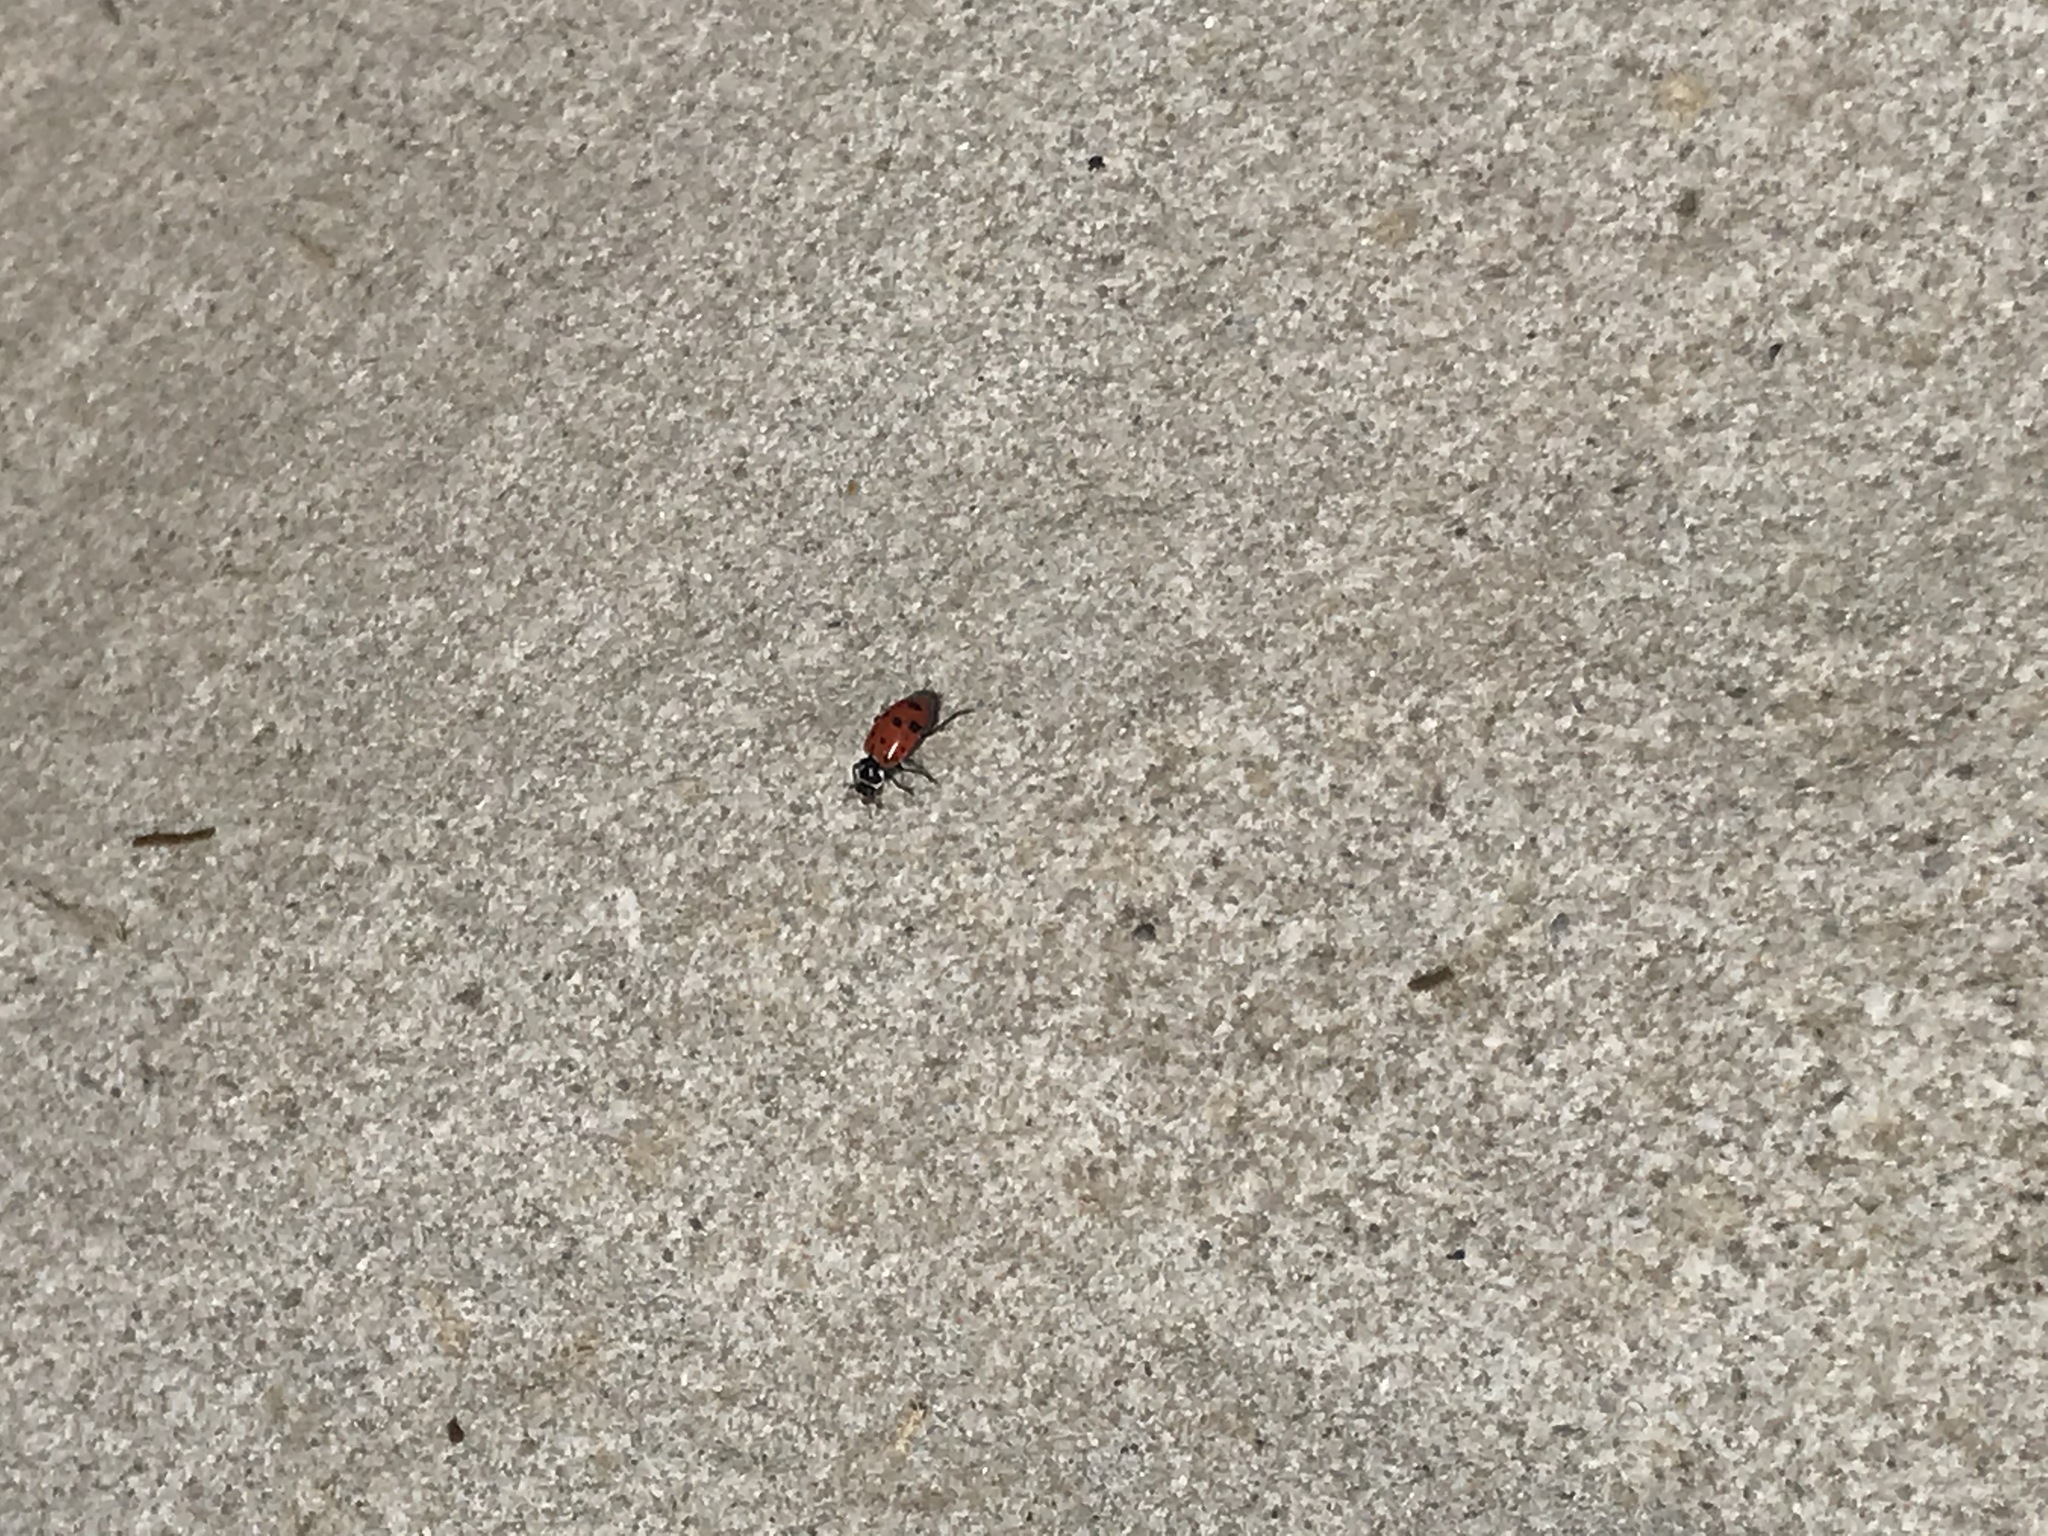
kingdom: Animalia
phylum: Arthropoda
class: Insecta
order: Coleoptera
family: Coccinellidae
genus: Hippodamia
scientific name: Hippodamia convergens
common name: Convergent lady beetle
